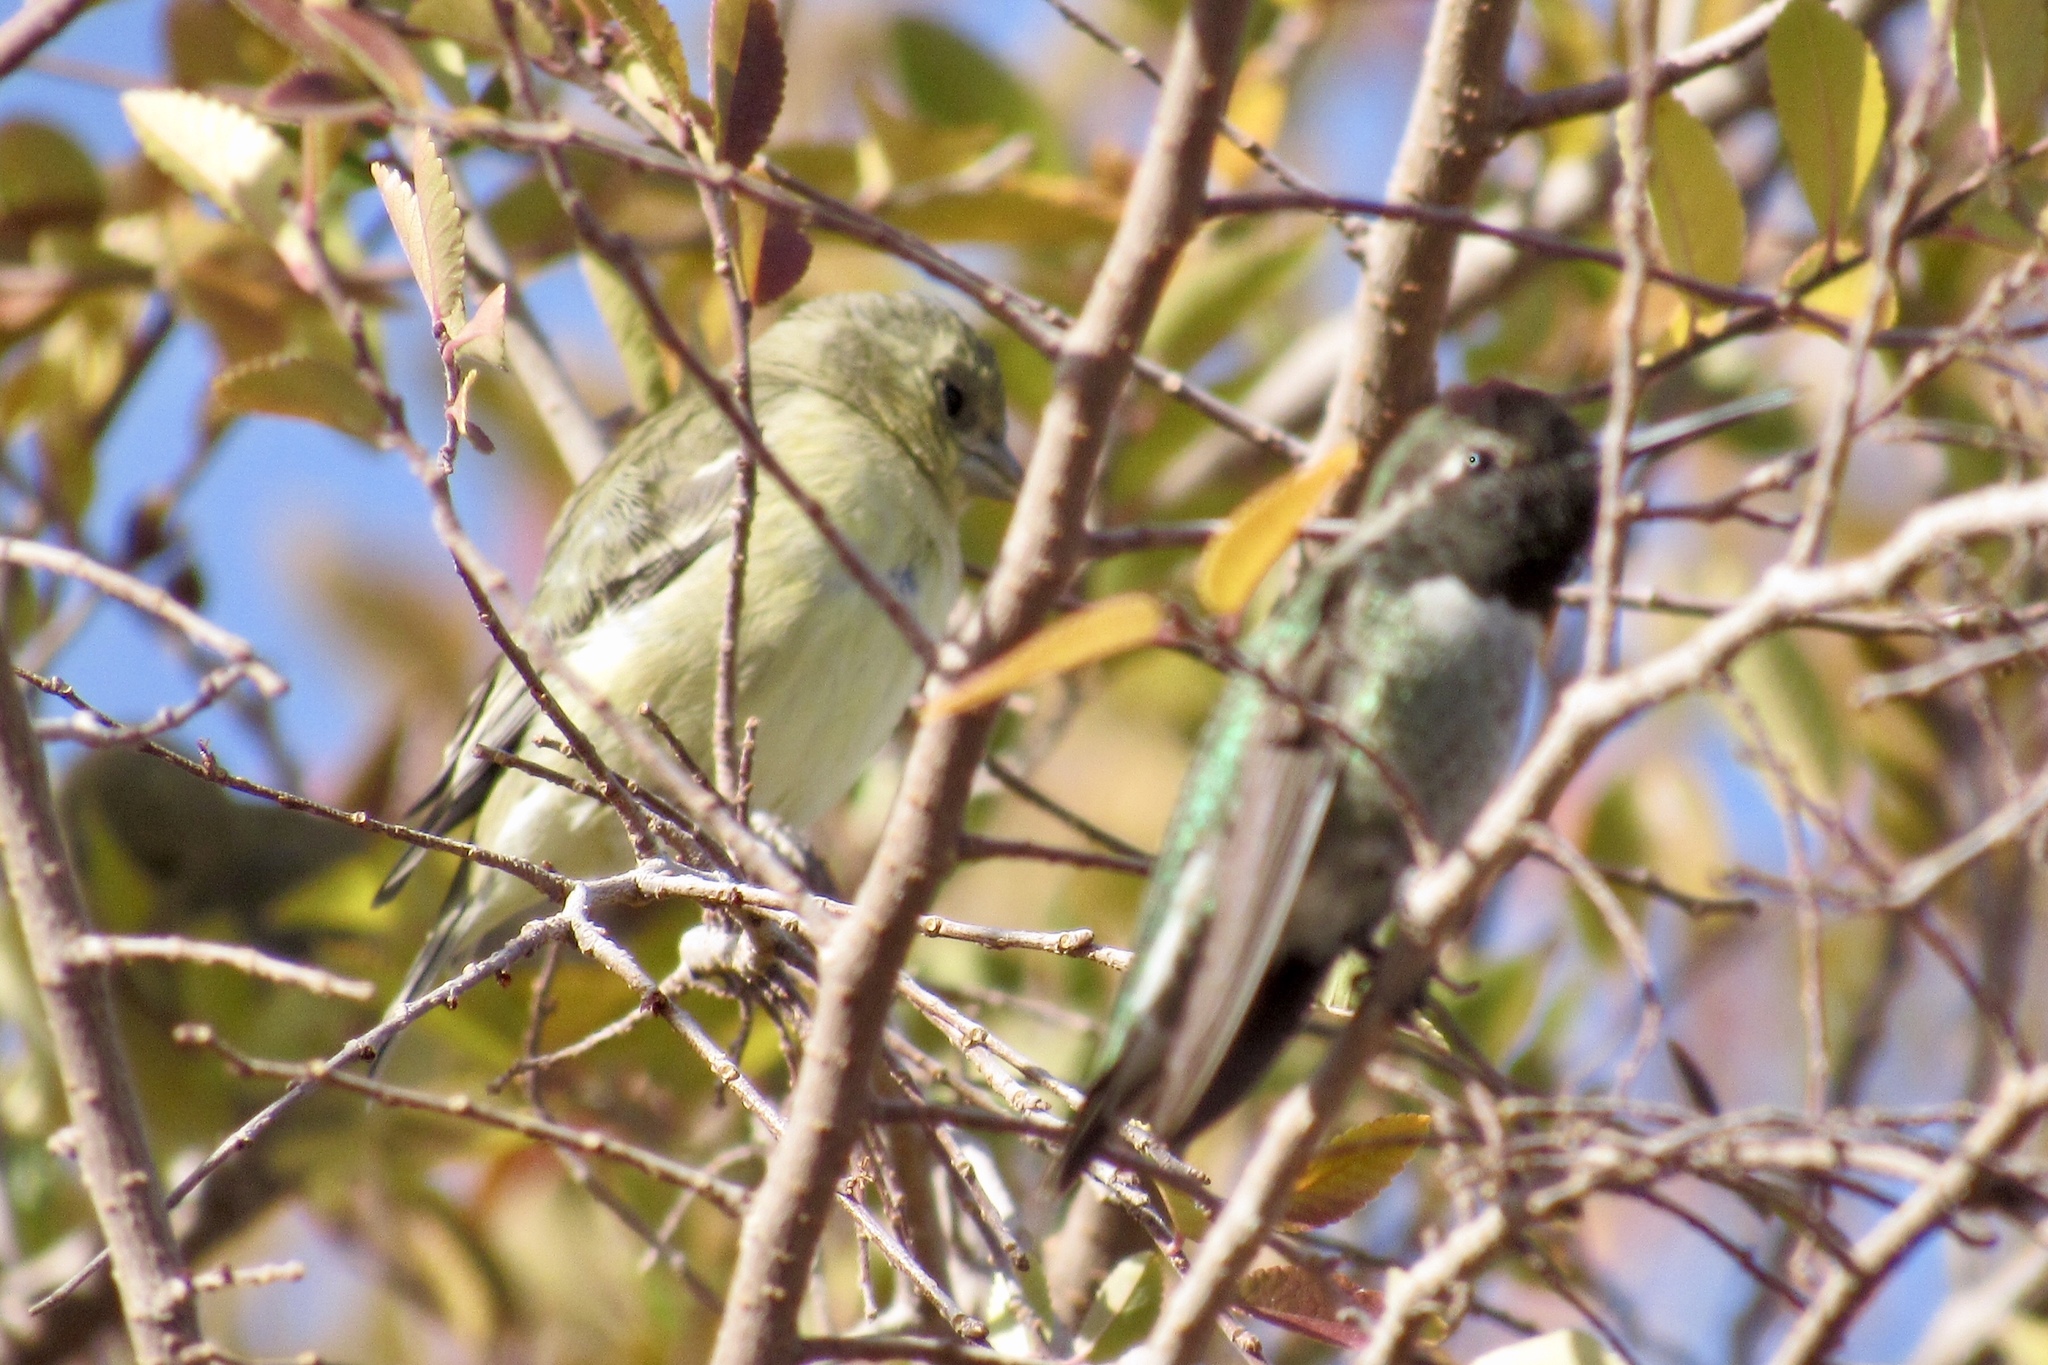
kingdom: Animalia
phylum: Chordata
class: Aves
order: Passeriformes
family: Fringillidae
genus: Spinus
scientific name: Spinus psaltria
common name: Lesser goldfinch
